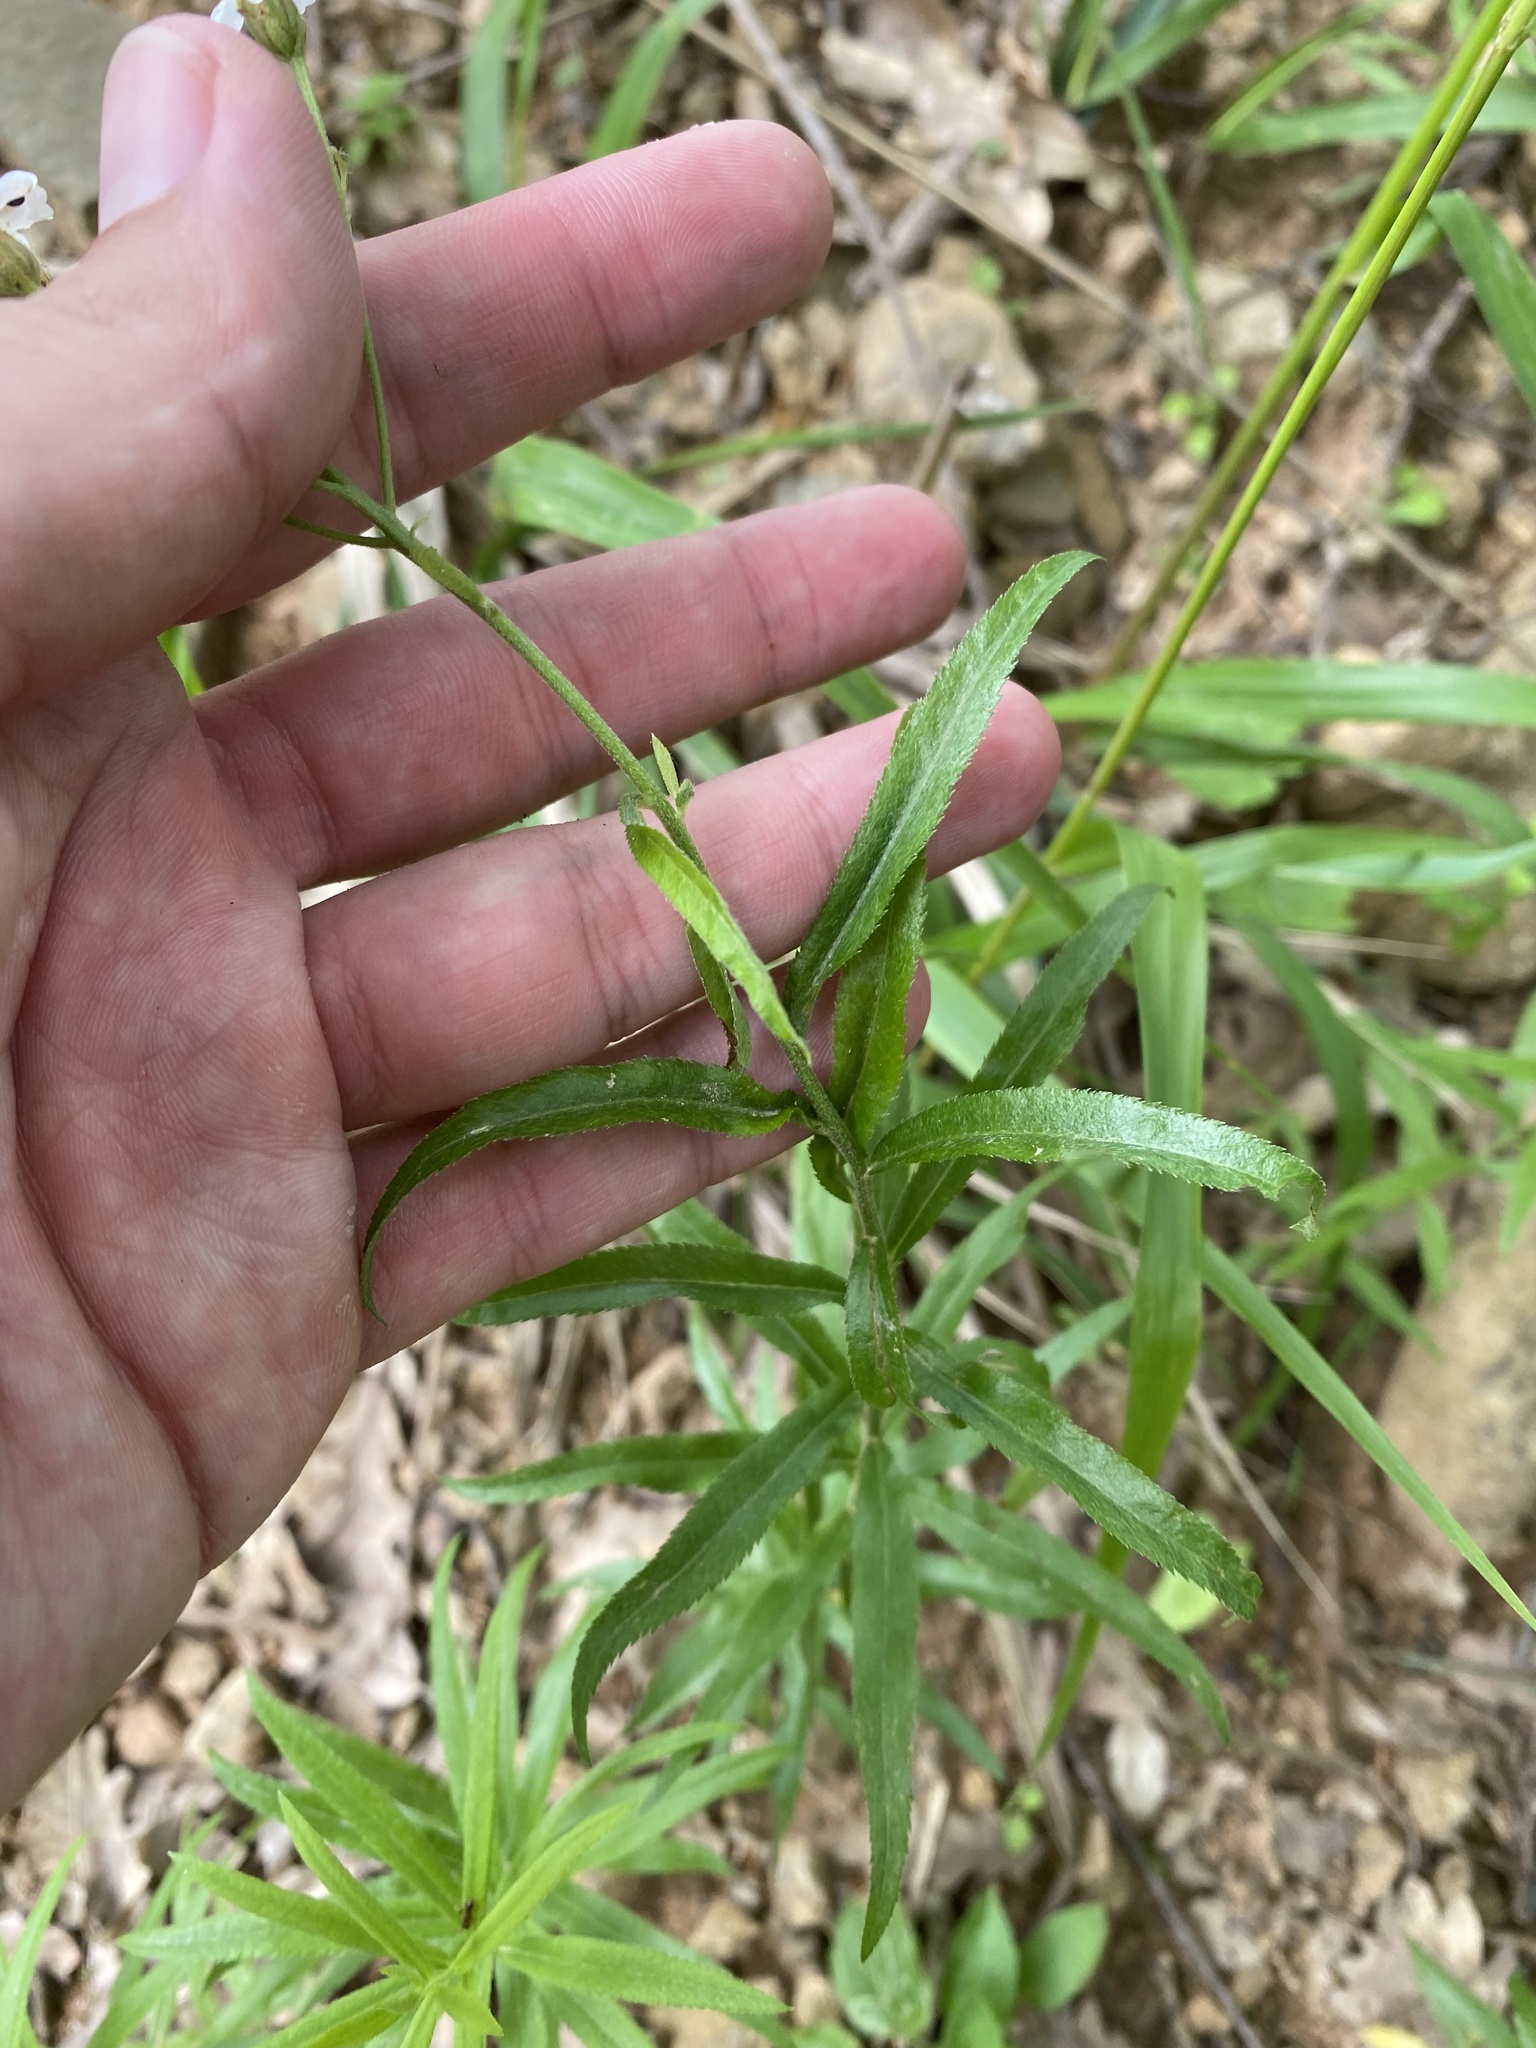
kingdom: Plantae
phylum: Tracheophyta
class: Magnoliopsida
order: Asterales
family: Asteraceae
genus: Achillea
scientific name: Achillea biserrata
